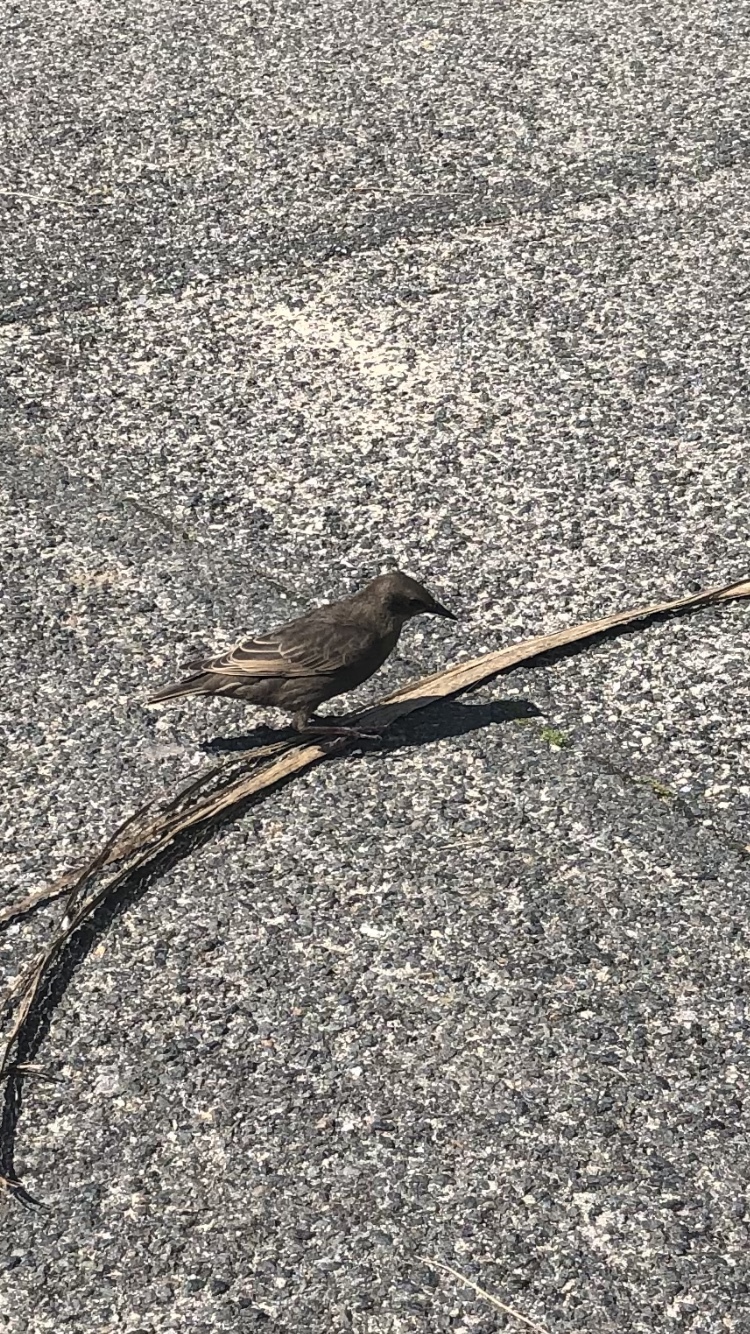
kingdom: Animalia
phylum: Chordata
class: Aves
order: Passeriformes
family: Sturnidae
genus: Sturnus
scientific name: Sturnus vulgaris
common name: Common starling
